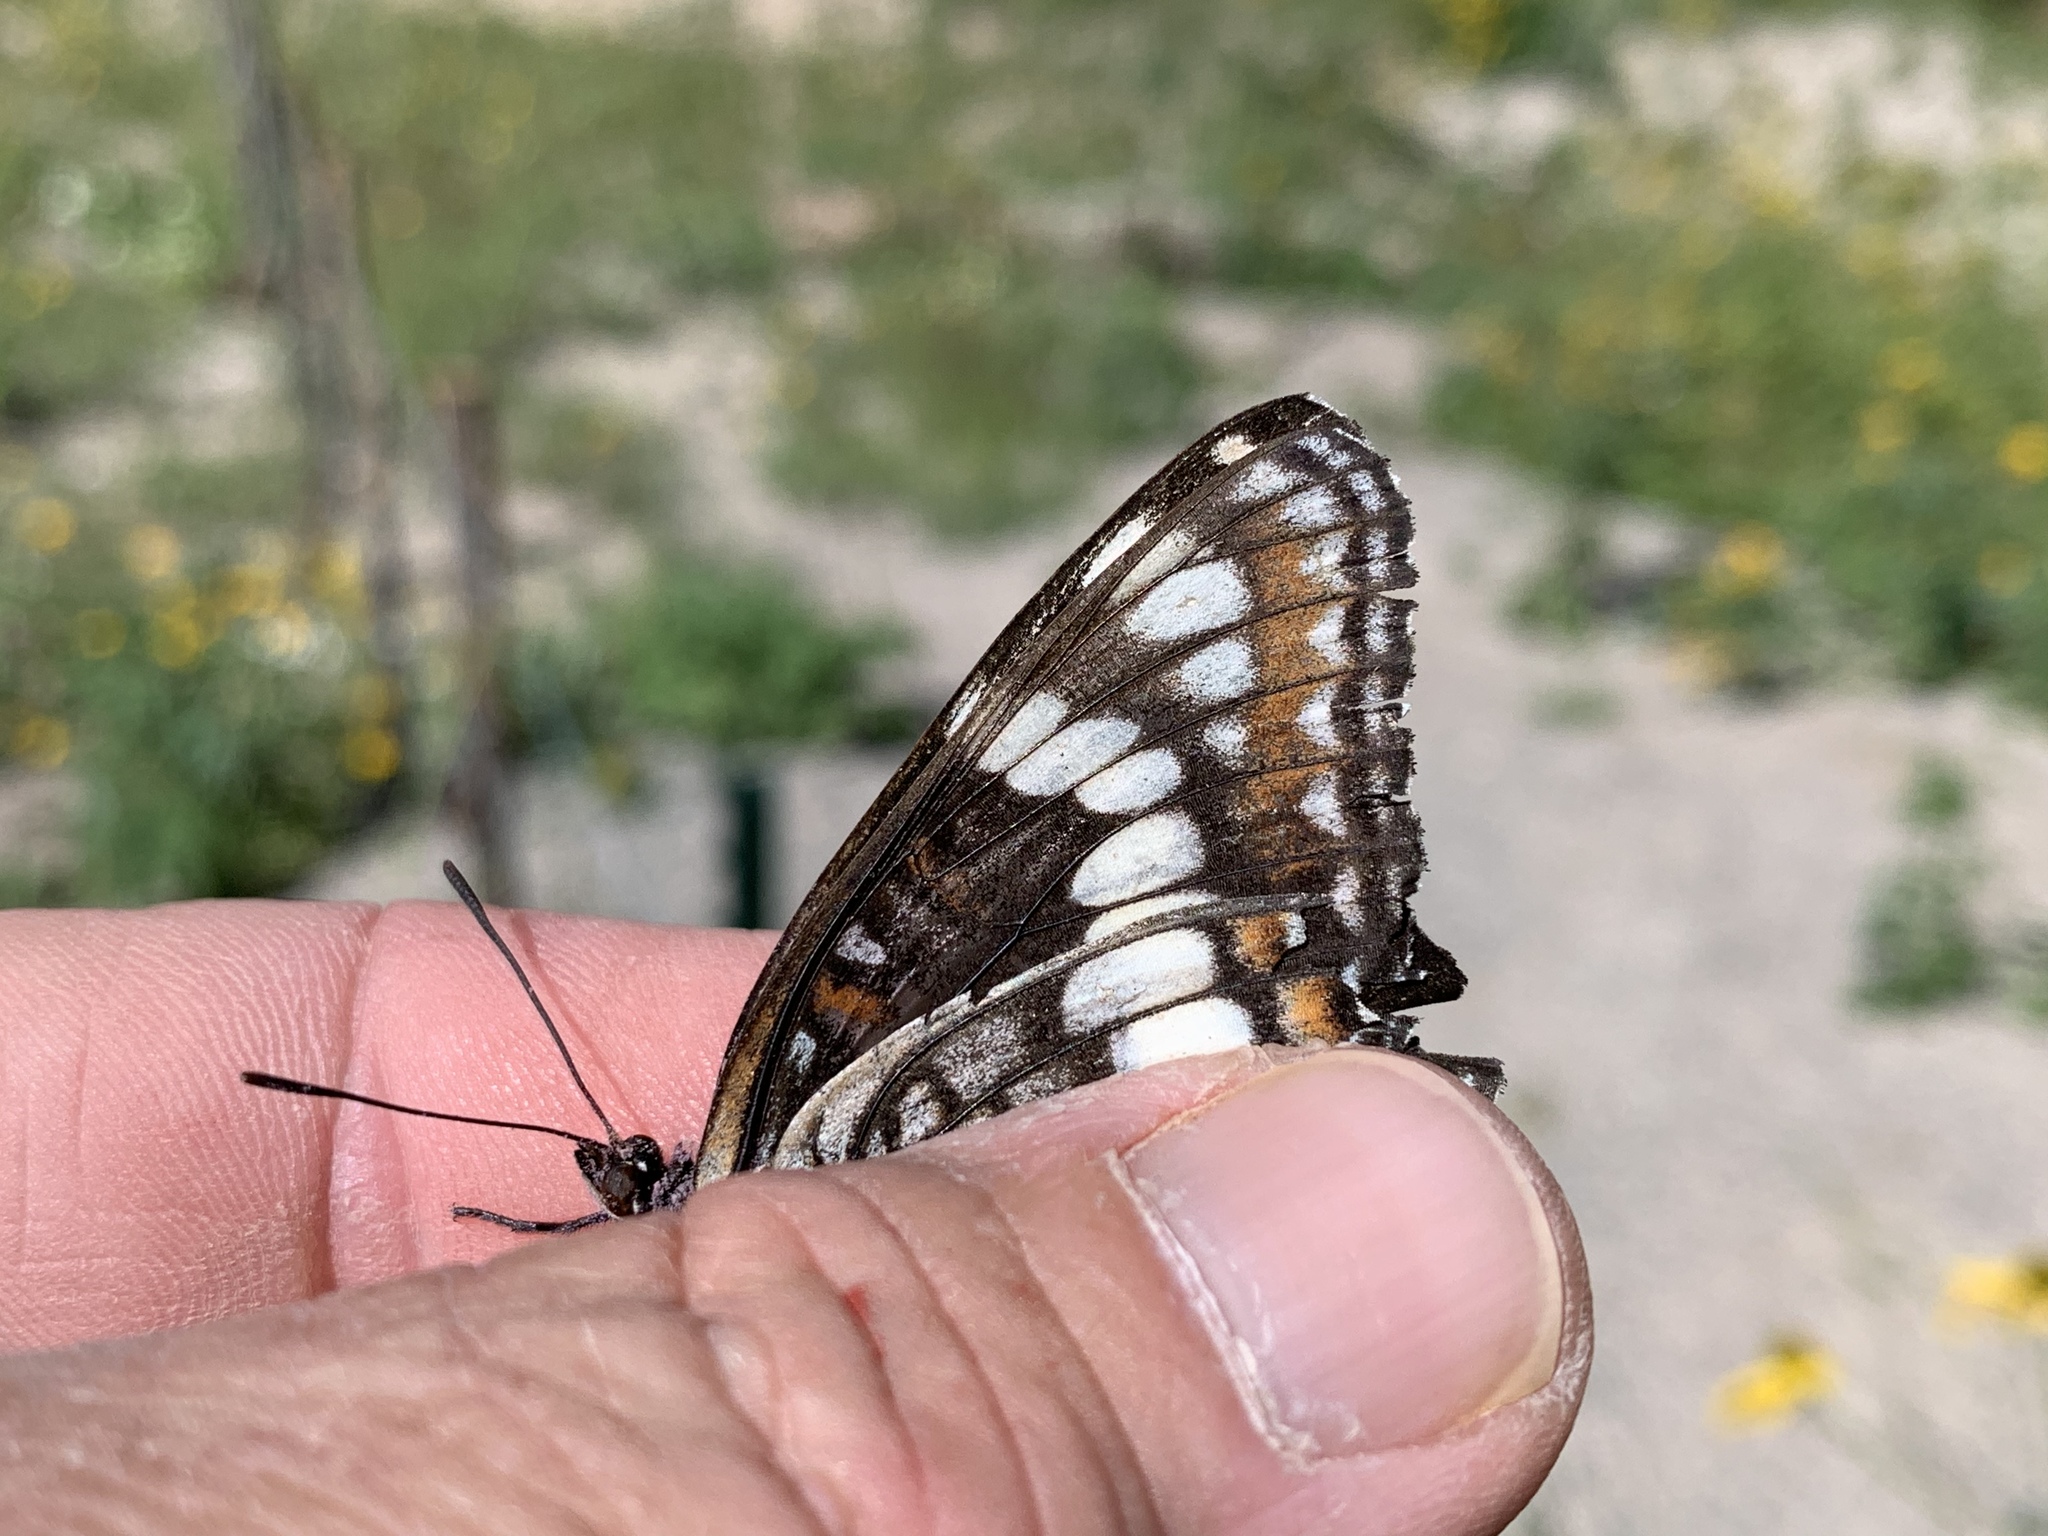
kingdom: Animalia
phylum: Arthropoda
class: Insecta
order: Lepidoptera
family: Nymphalidae
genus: Limenitis
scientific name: Limenitis weidemeyerii
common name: Weidemeyer's admiral
